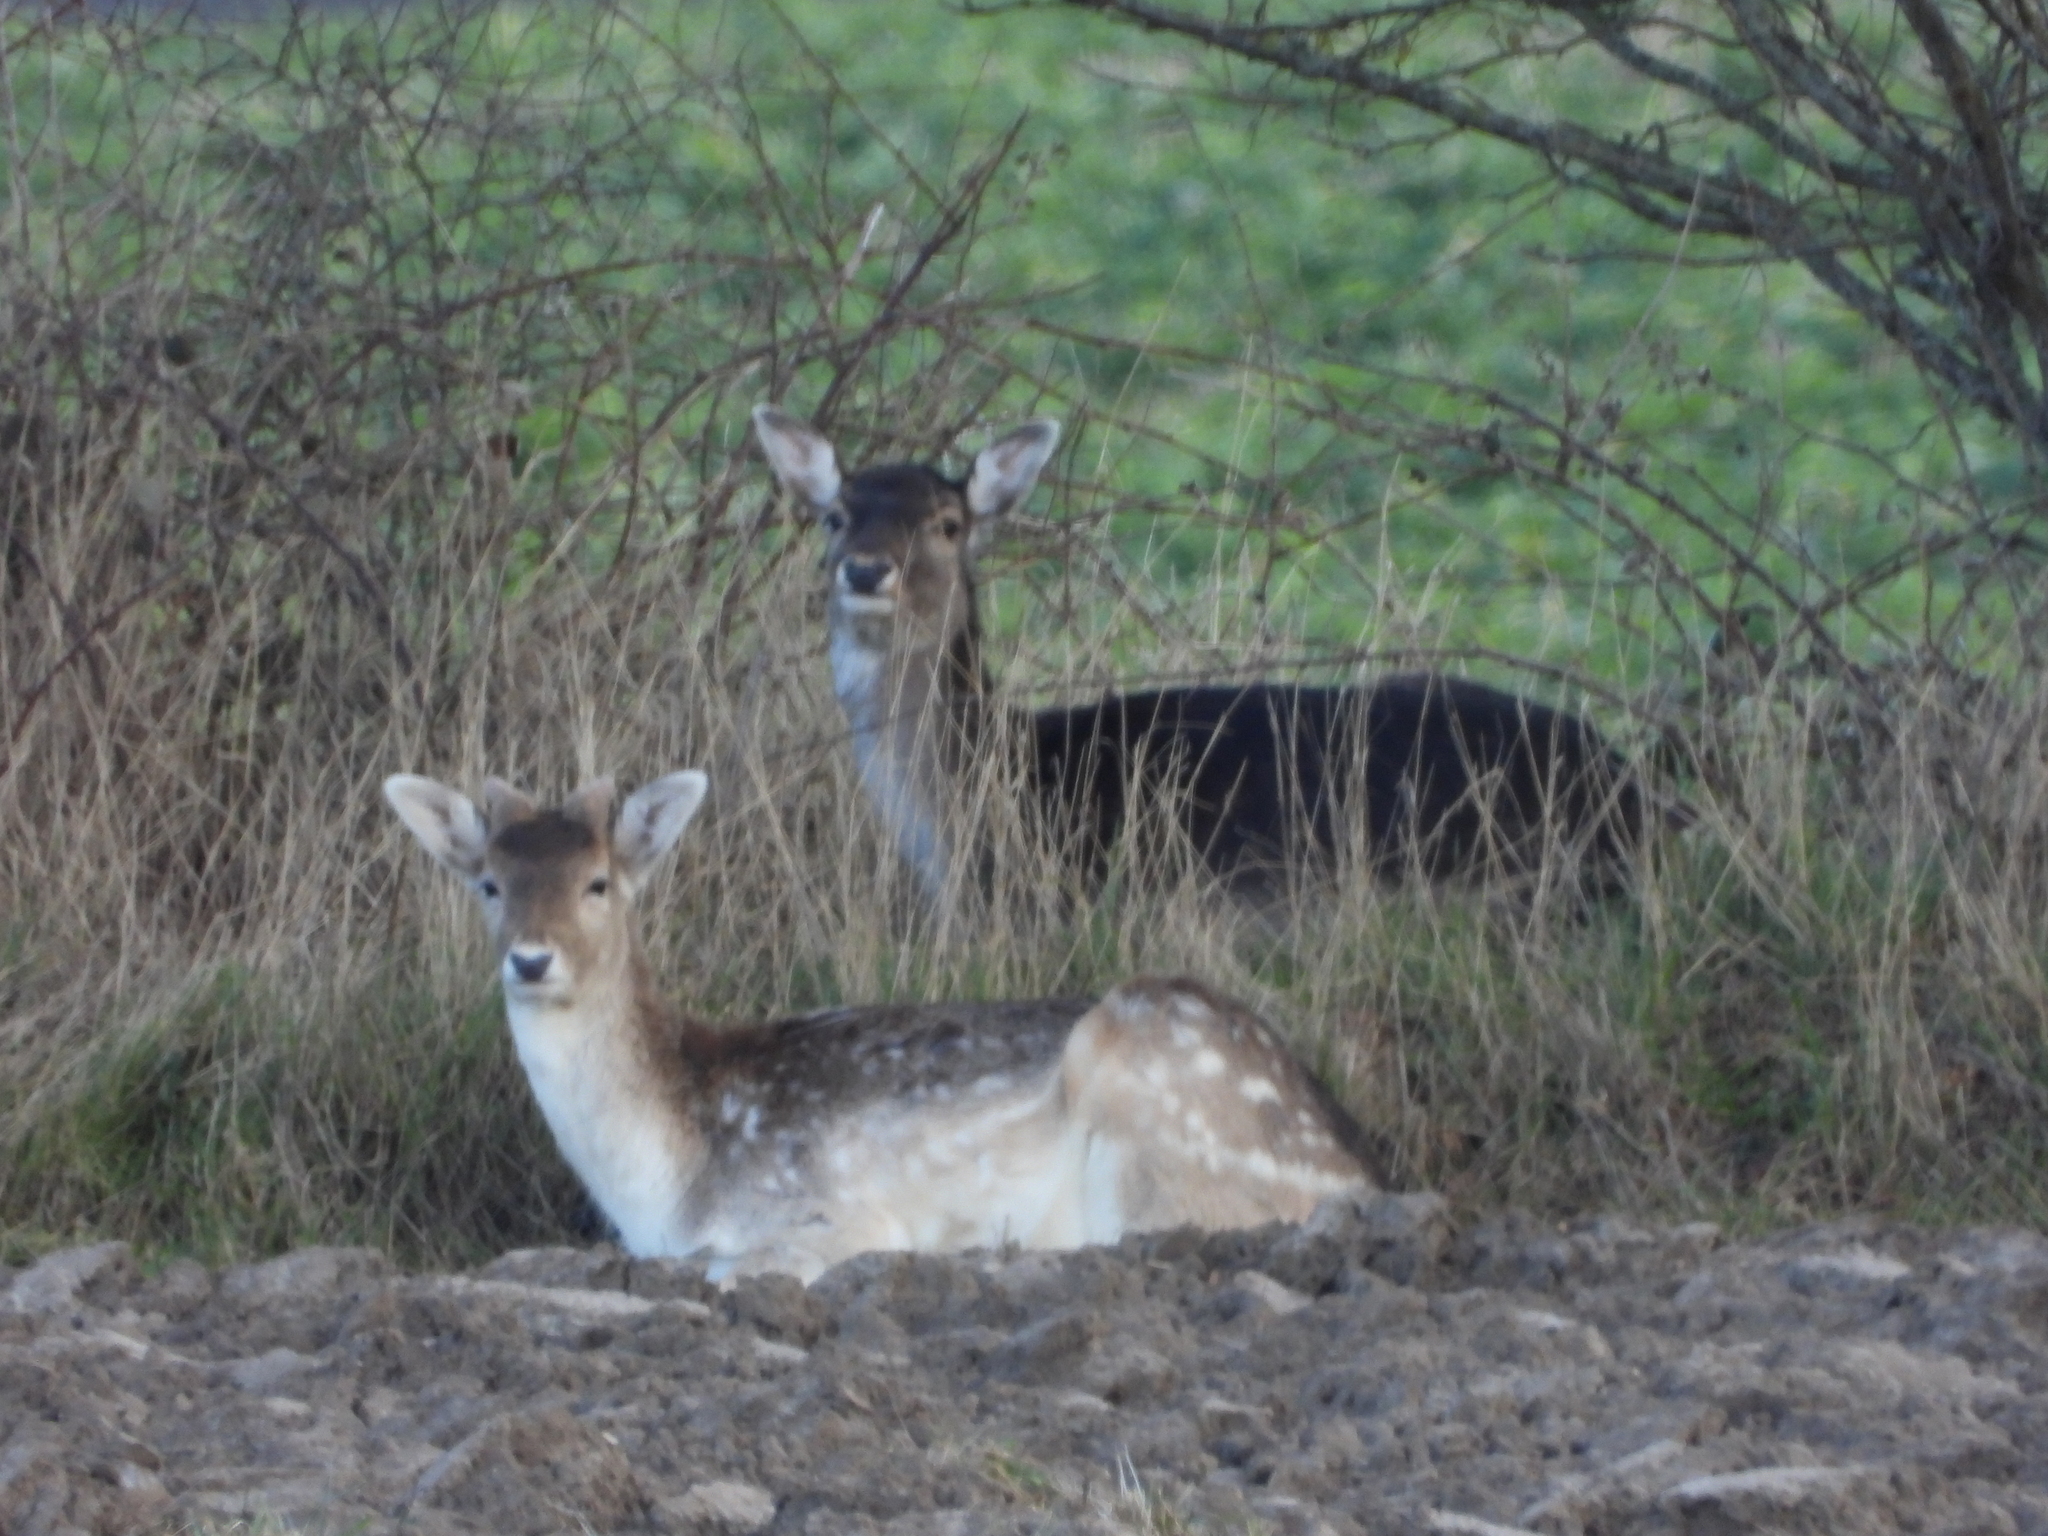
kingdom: Animalia
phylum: Chordata
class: Mammalia
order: Artiodactyla
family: Cervidae
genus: Dama
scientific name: Dama dama
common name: Fallow deer
